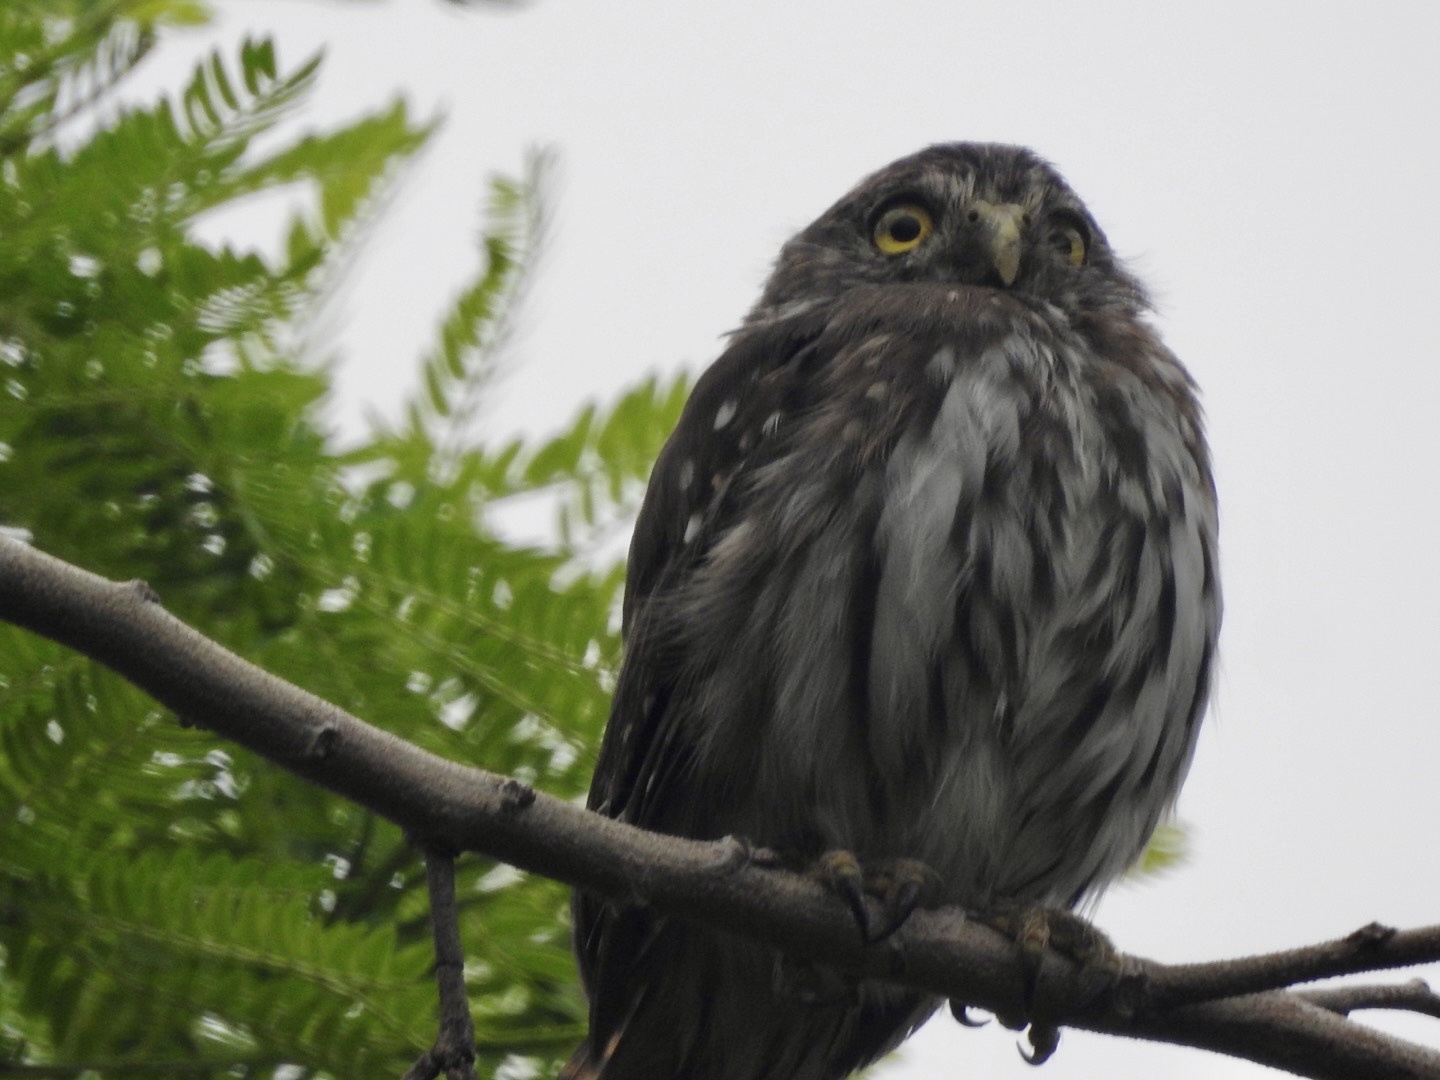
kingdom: Animalia
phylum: Chordata
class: Aves
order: Strigiformes
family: Strigidae
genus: Glaucidium
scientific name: Glaucidium brasilianum
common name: Ferruginous pygmy-owl
